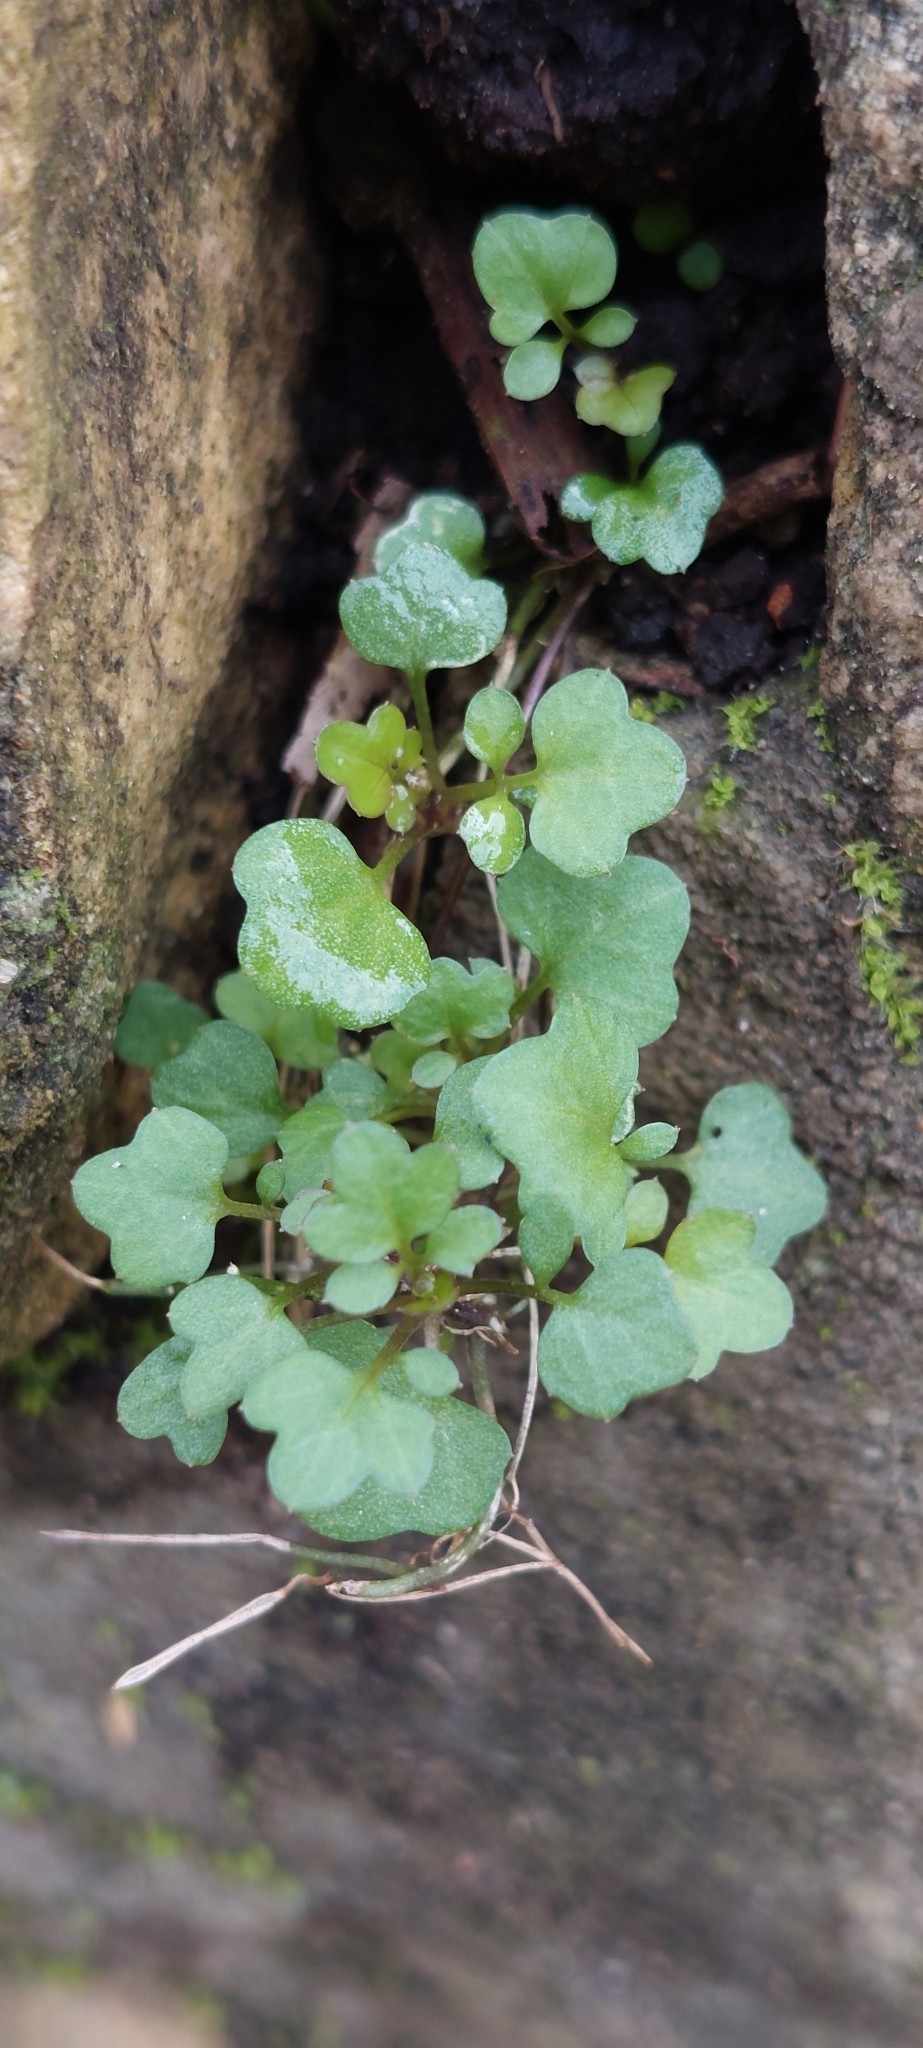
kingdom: Plantae
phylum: Tracheophyta
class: Magnoliopsida
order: Lamiales
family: Plantaginaceae
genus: Cymbalaria
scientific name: Cymbalaria muralis
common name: Ivy-leaved toadflax
